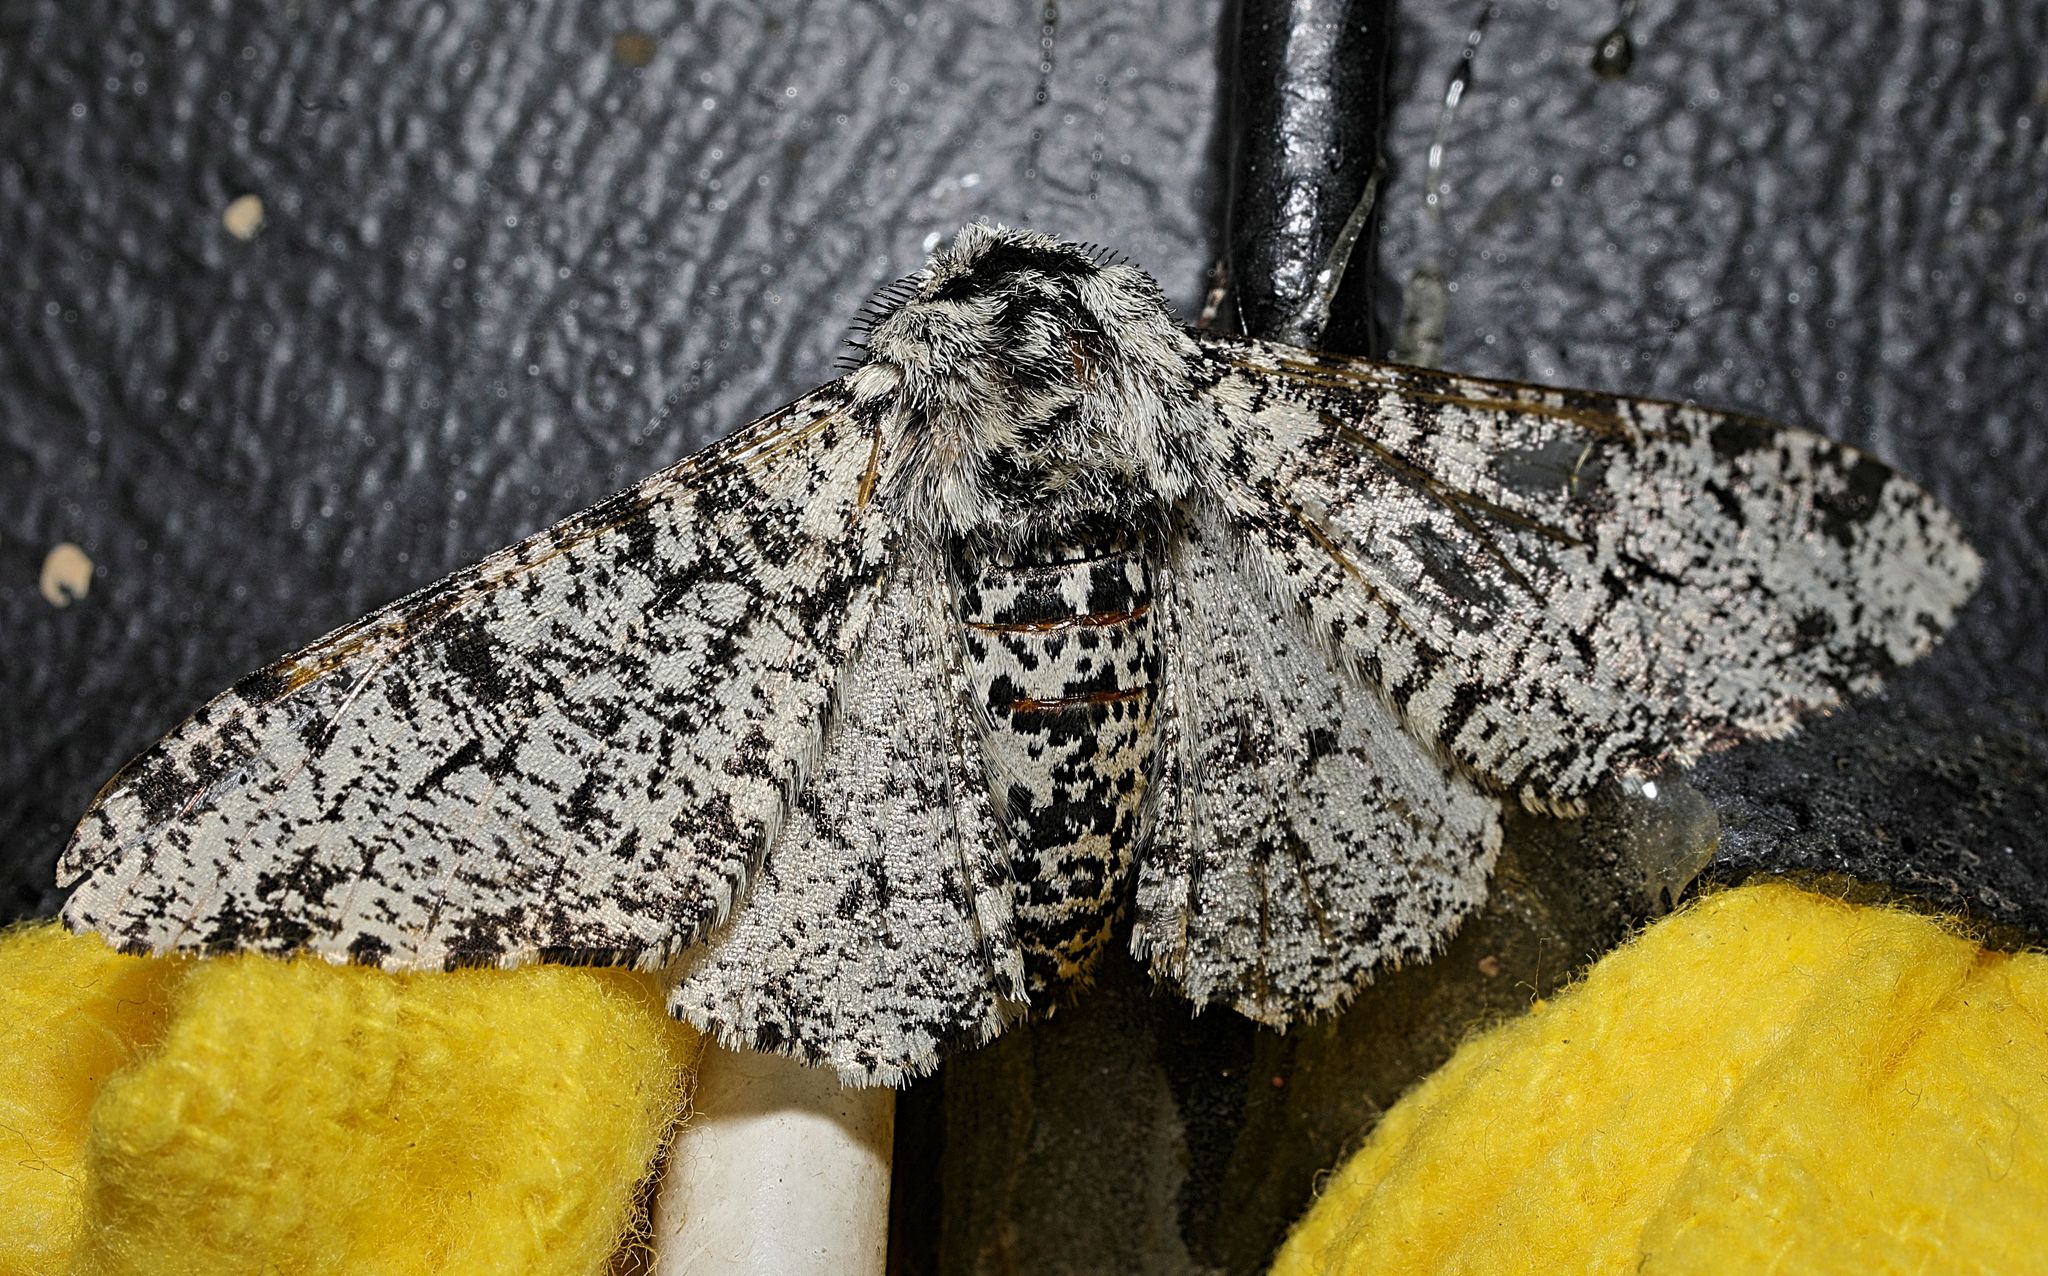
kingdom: Animalia
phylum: Arthropoda
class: Insecta
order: Lepidoptera
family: Geometridae
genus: Biston
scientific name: Biston betularia
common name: Peppered moth
